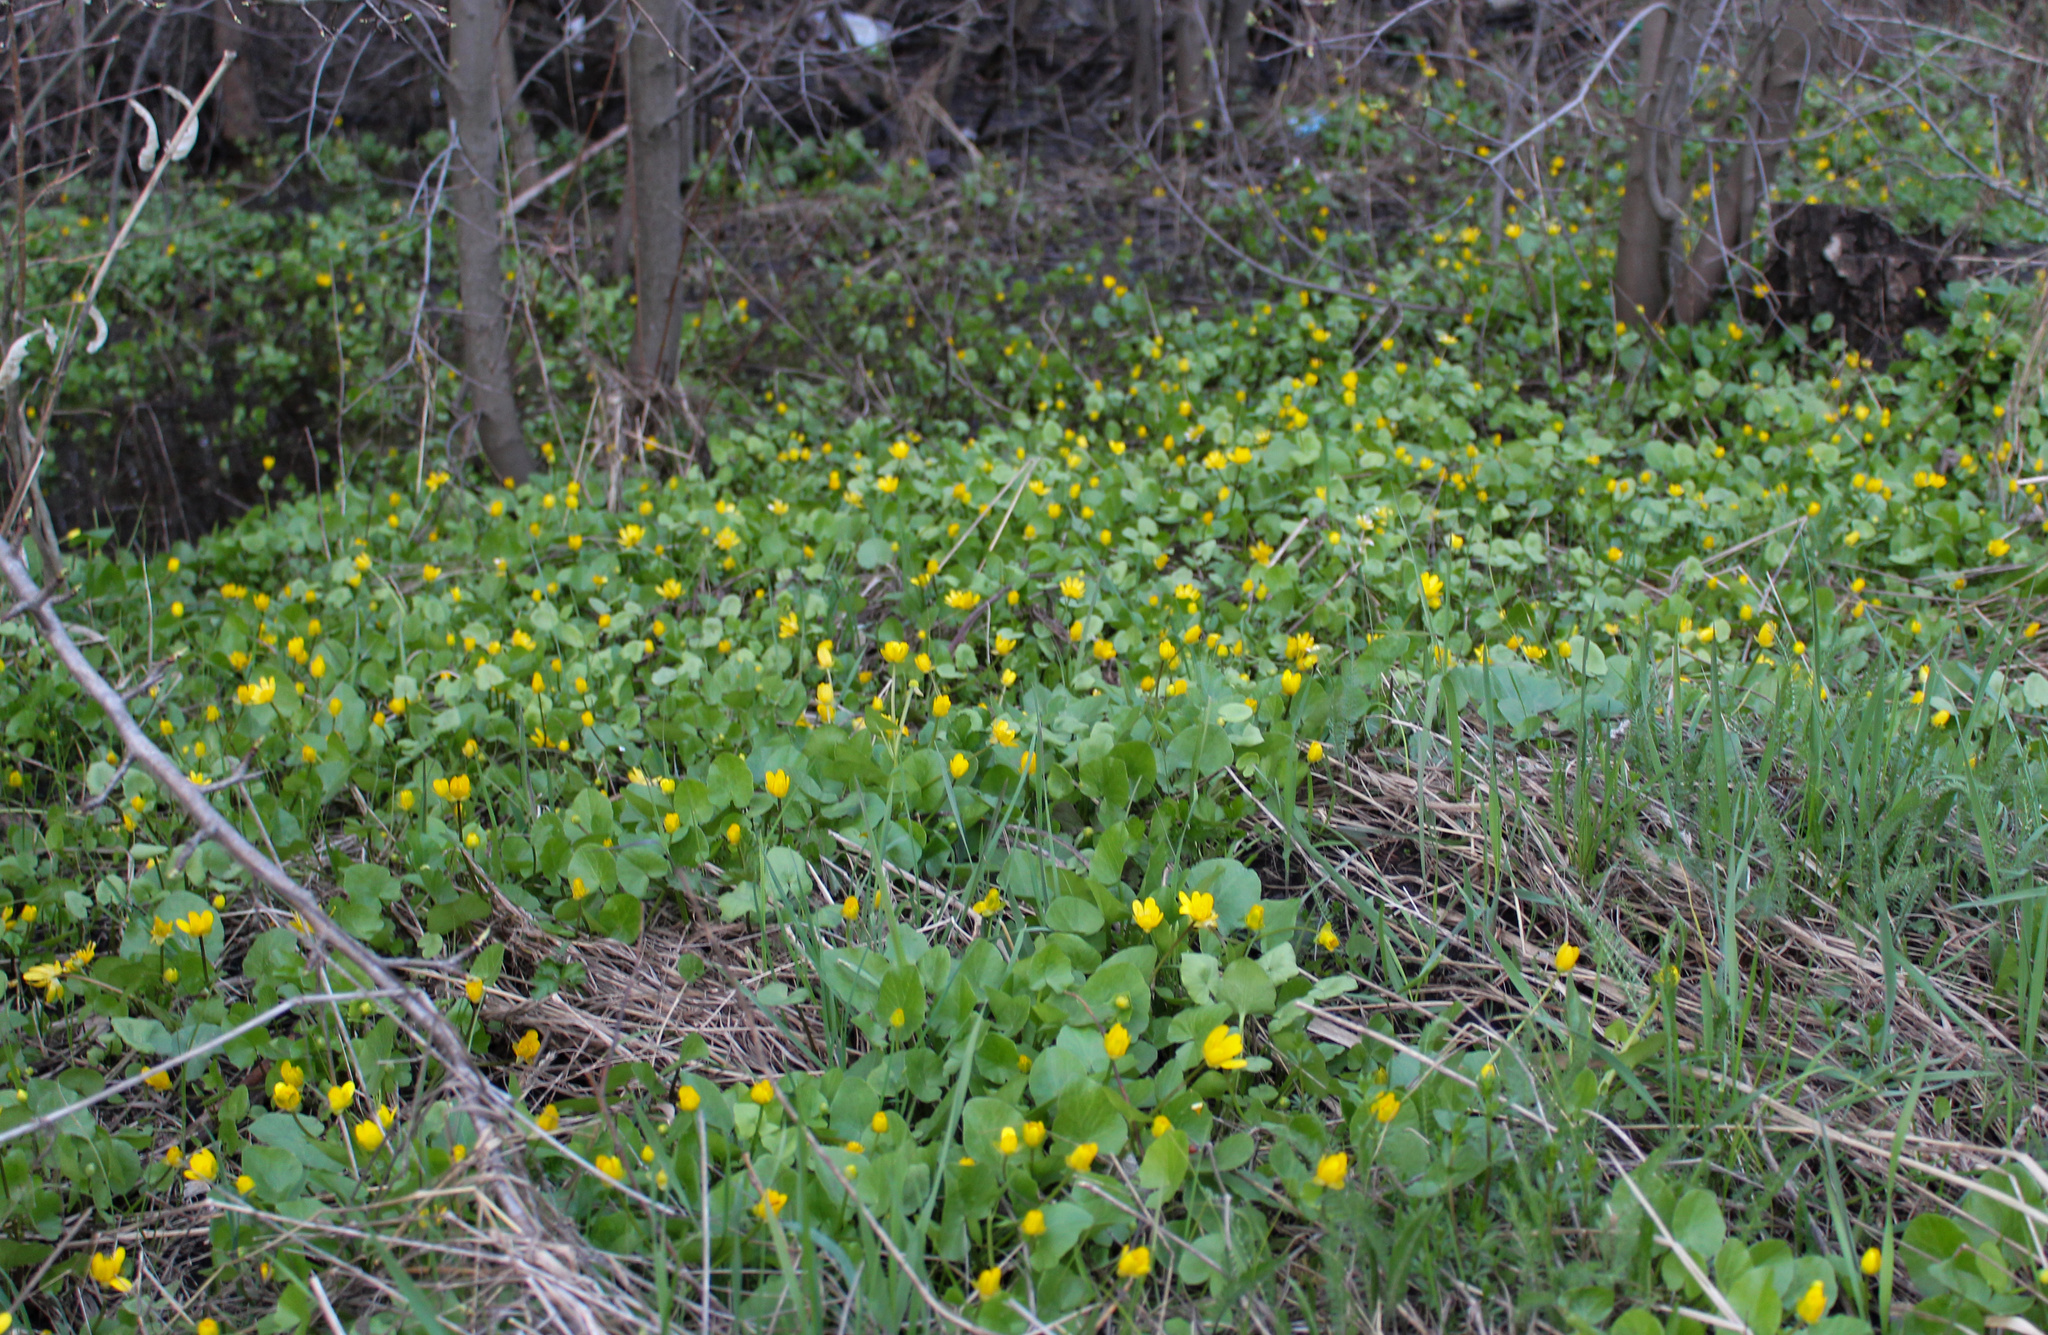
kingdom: Plantae
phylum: Tracheophyta
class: Magnoliopsida
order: Ranunculales
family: Ranunculaceae
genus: Ficaria
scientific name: Ficaria verna
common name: Lesser celandine
